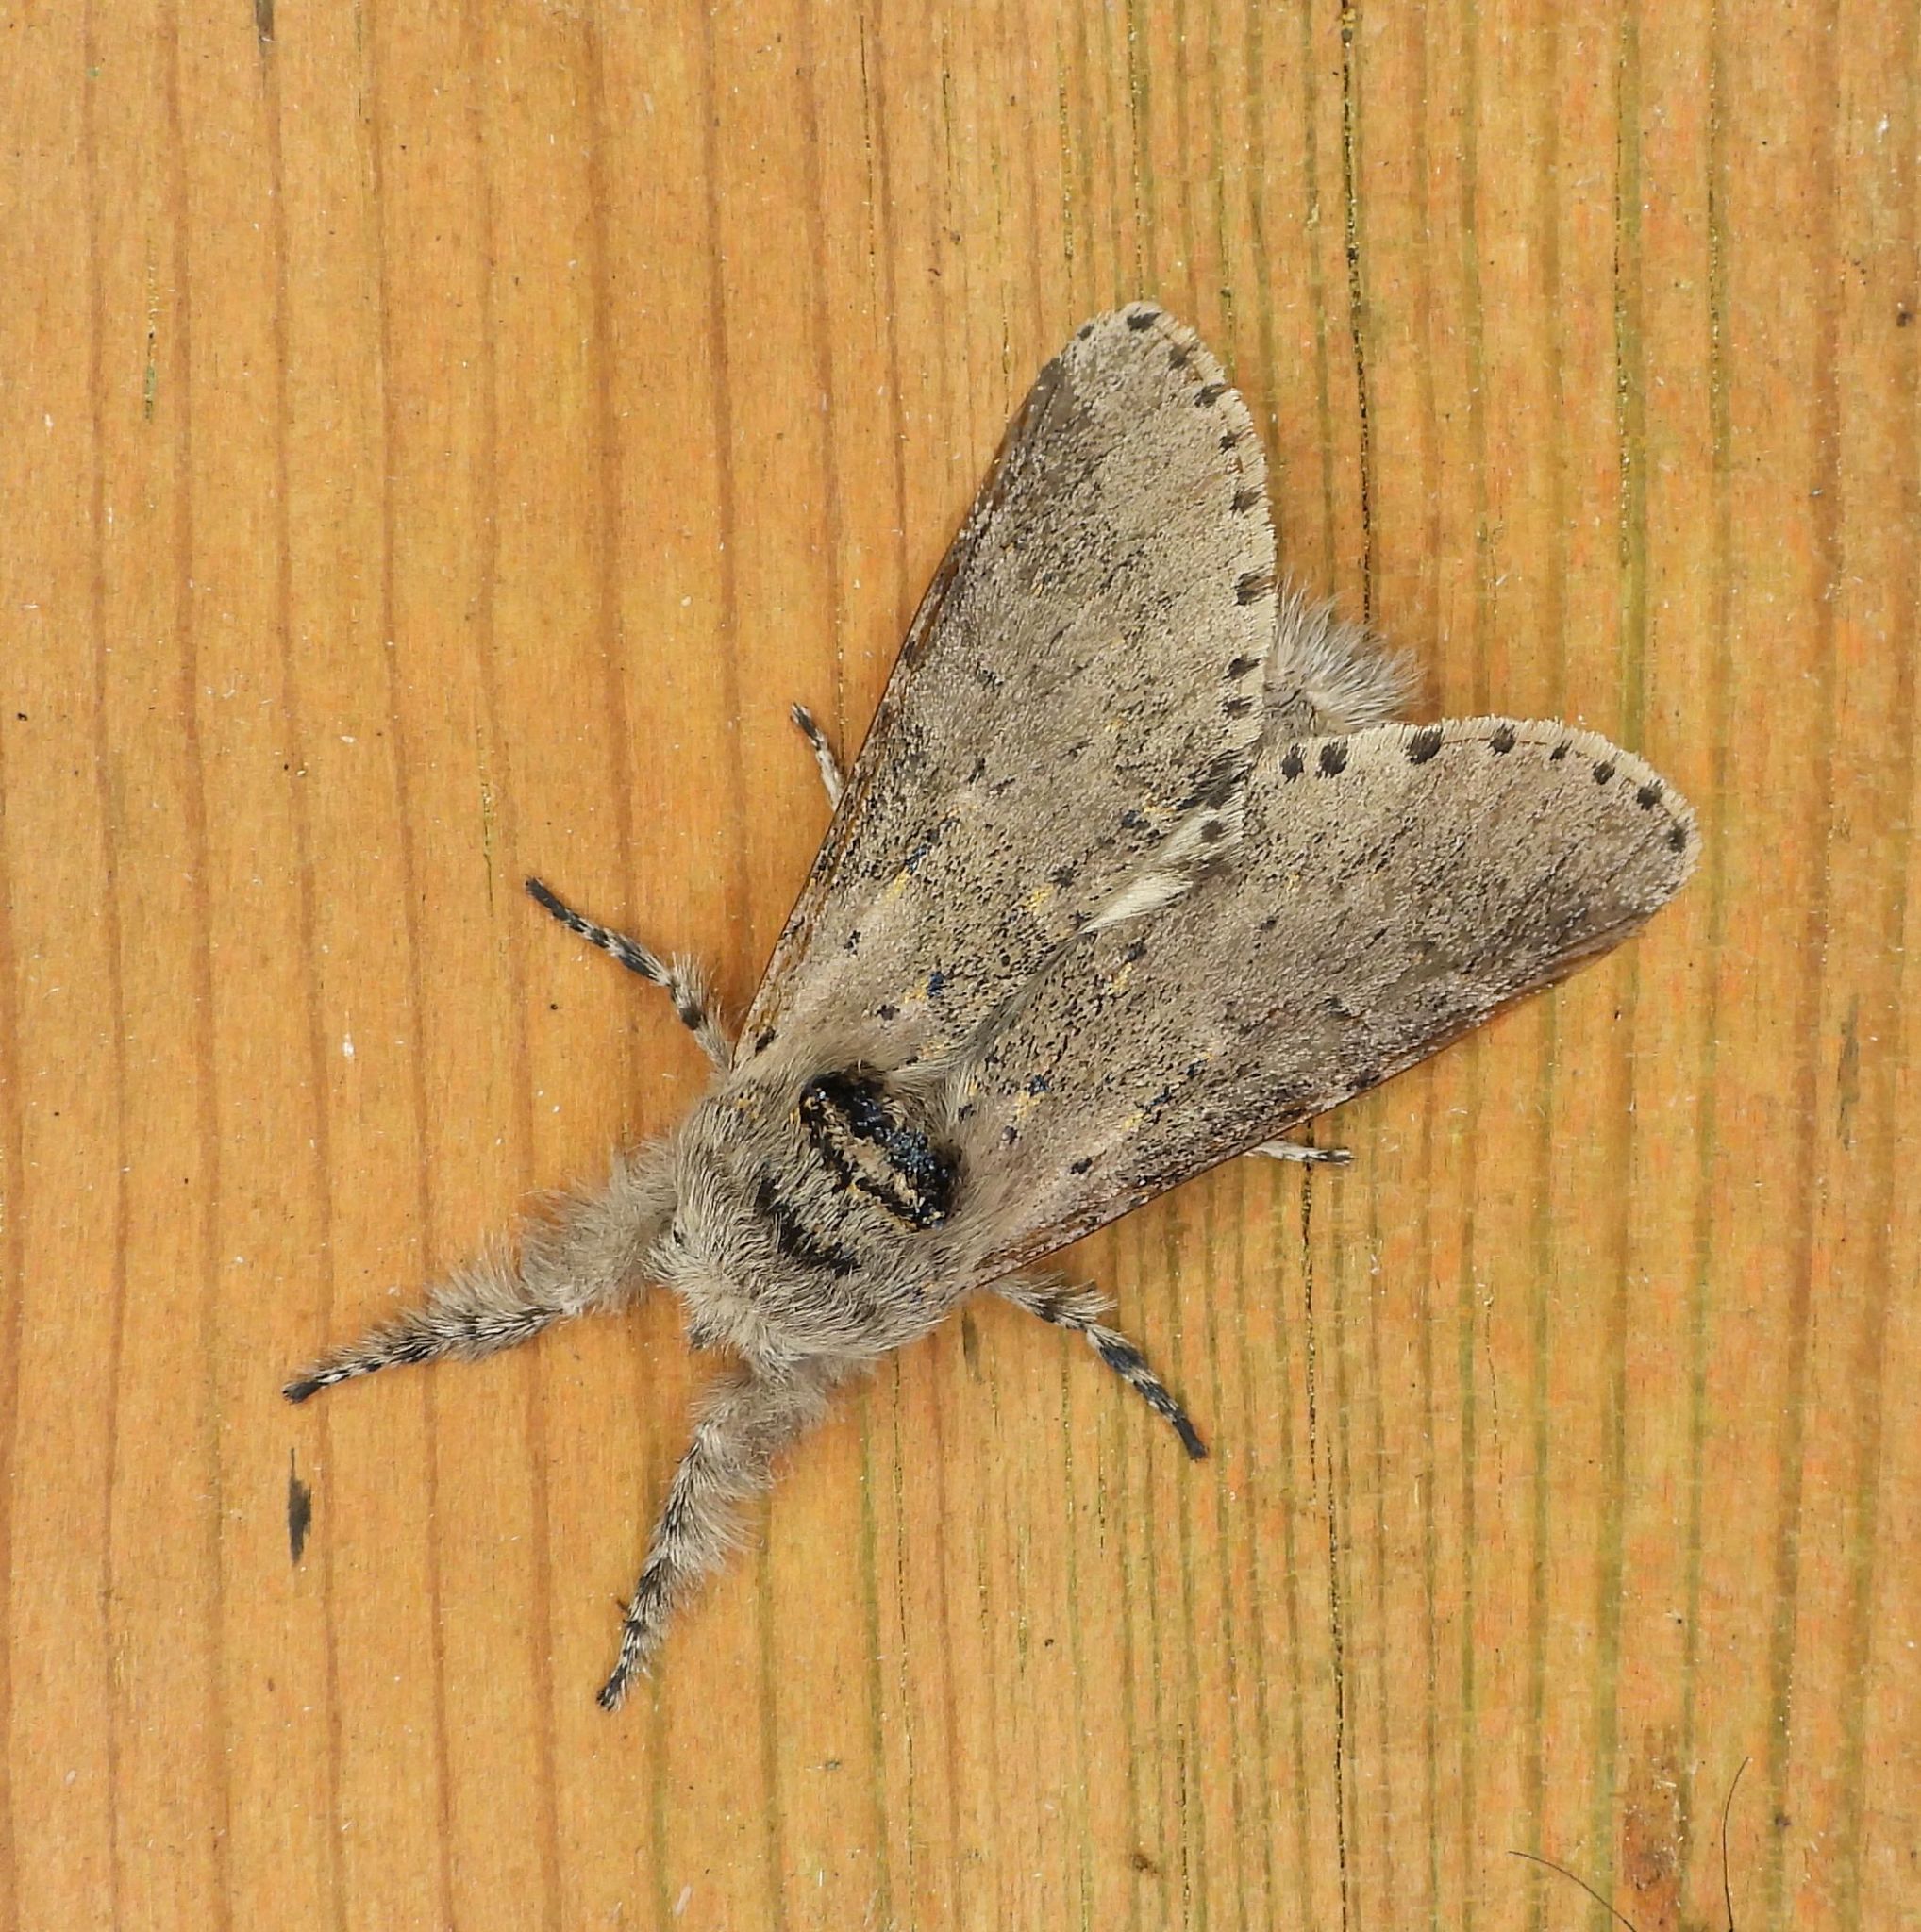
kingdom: Animalia
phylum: Arthropoda
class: Insecta
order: Lepidoptera
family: Notodontidae
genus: Furcula
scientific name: Furcula cinerea
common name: Gray furcula
